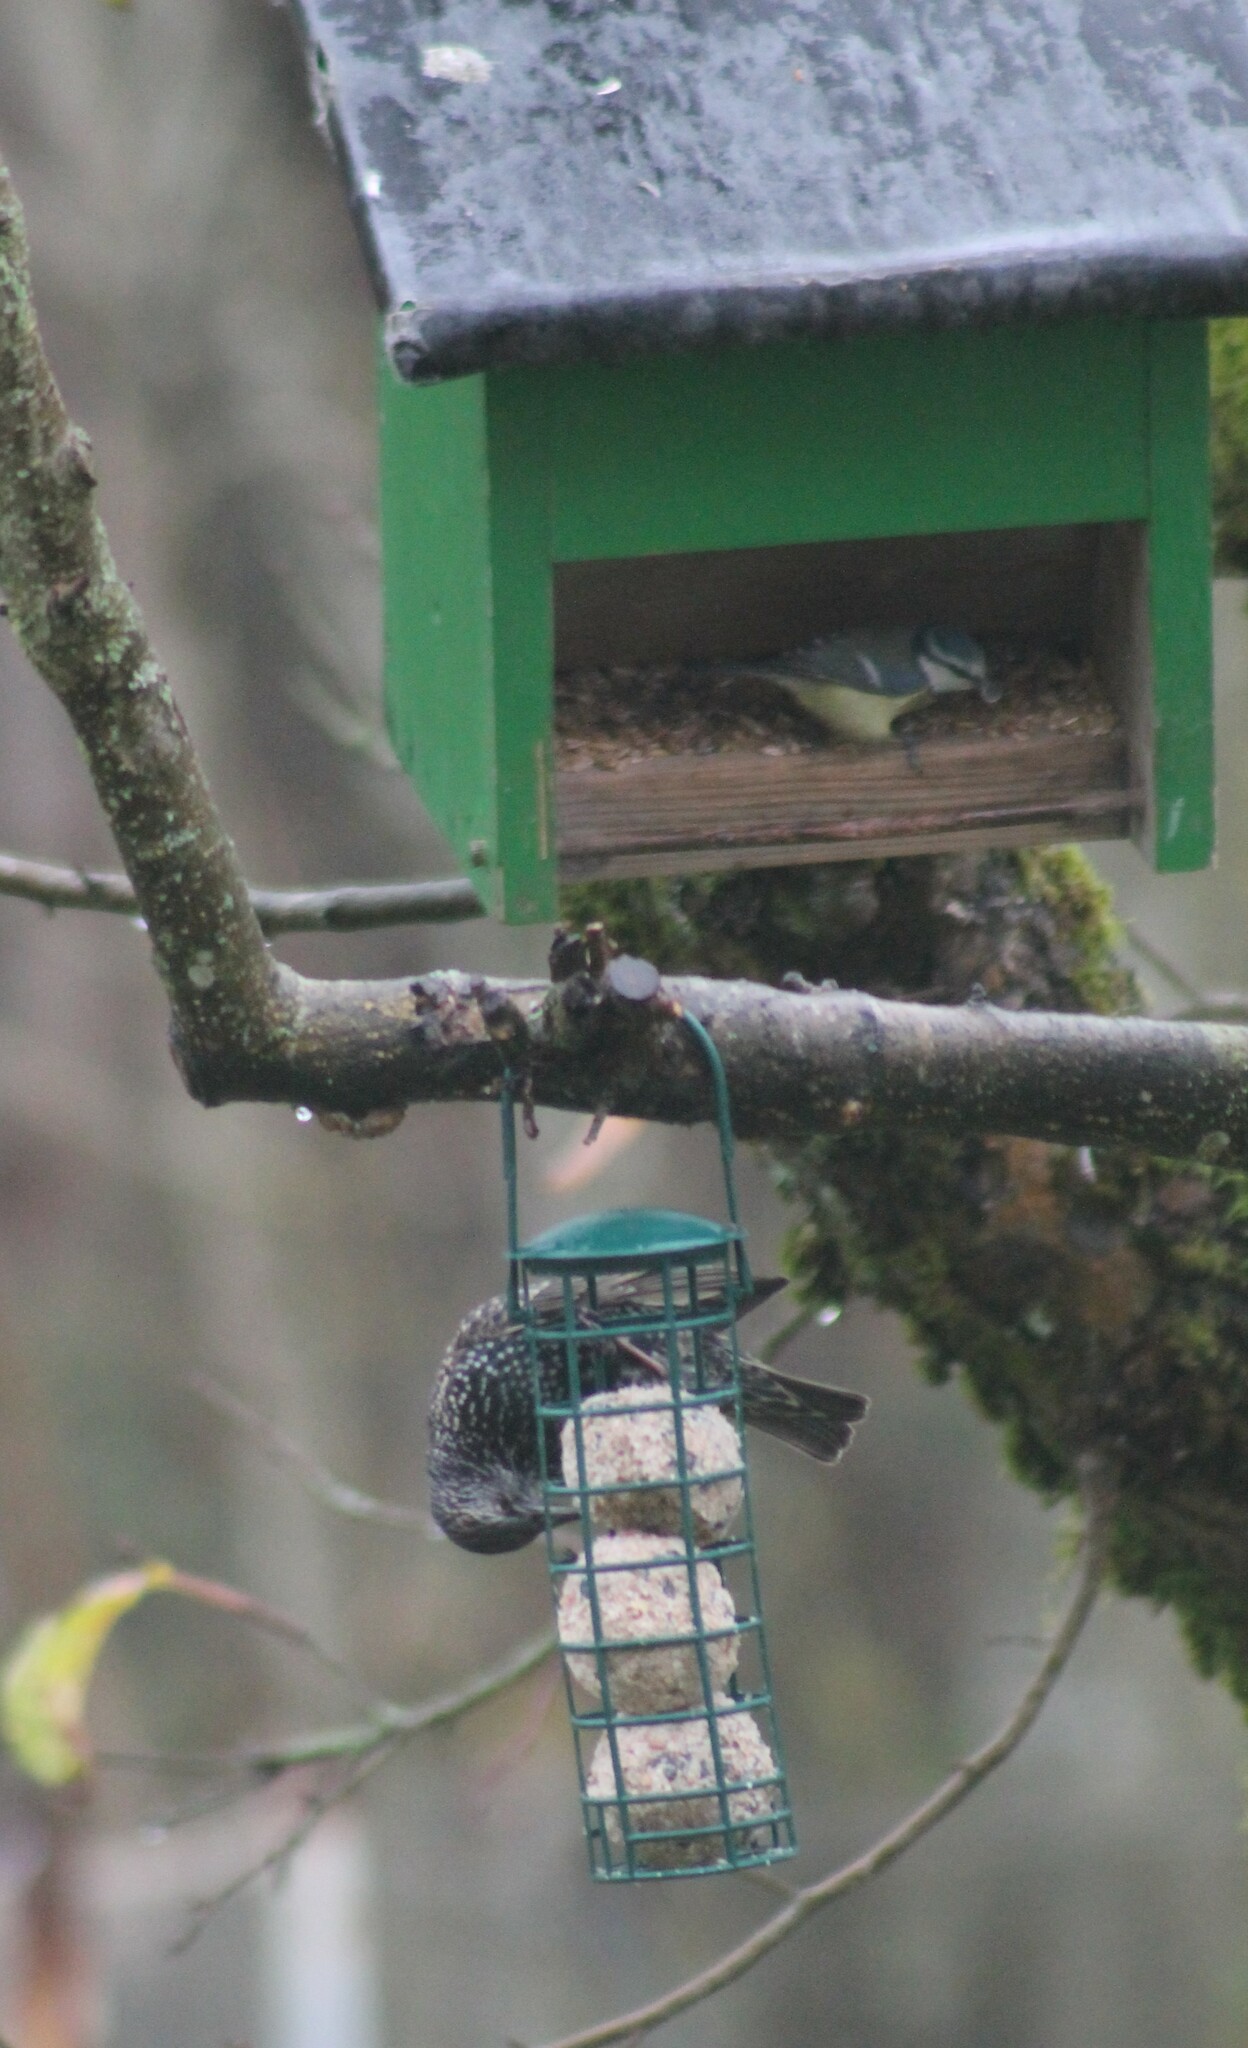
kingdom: Animalia
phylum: Chordata
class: Aves
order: Passeriformes
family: Sturnidae
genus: Sturnus
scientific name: Sturnus vulgaris
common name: Common starling
